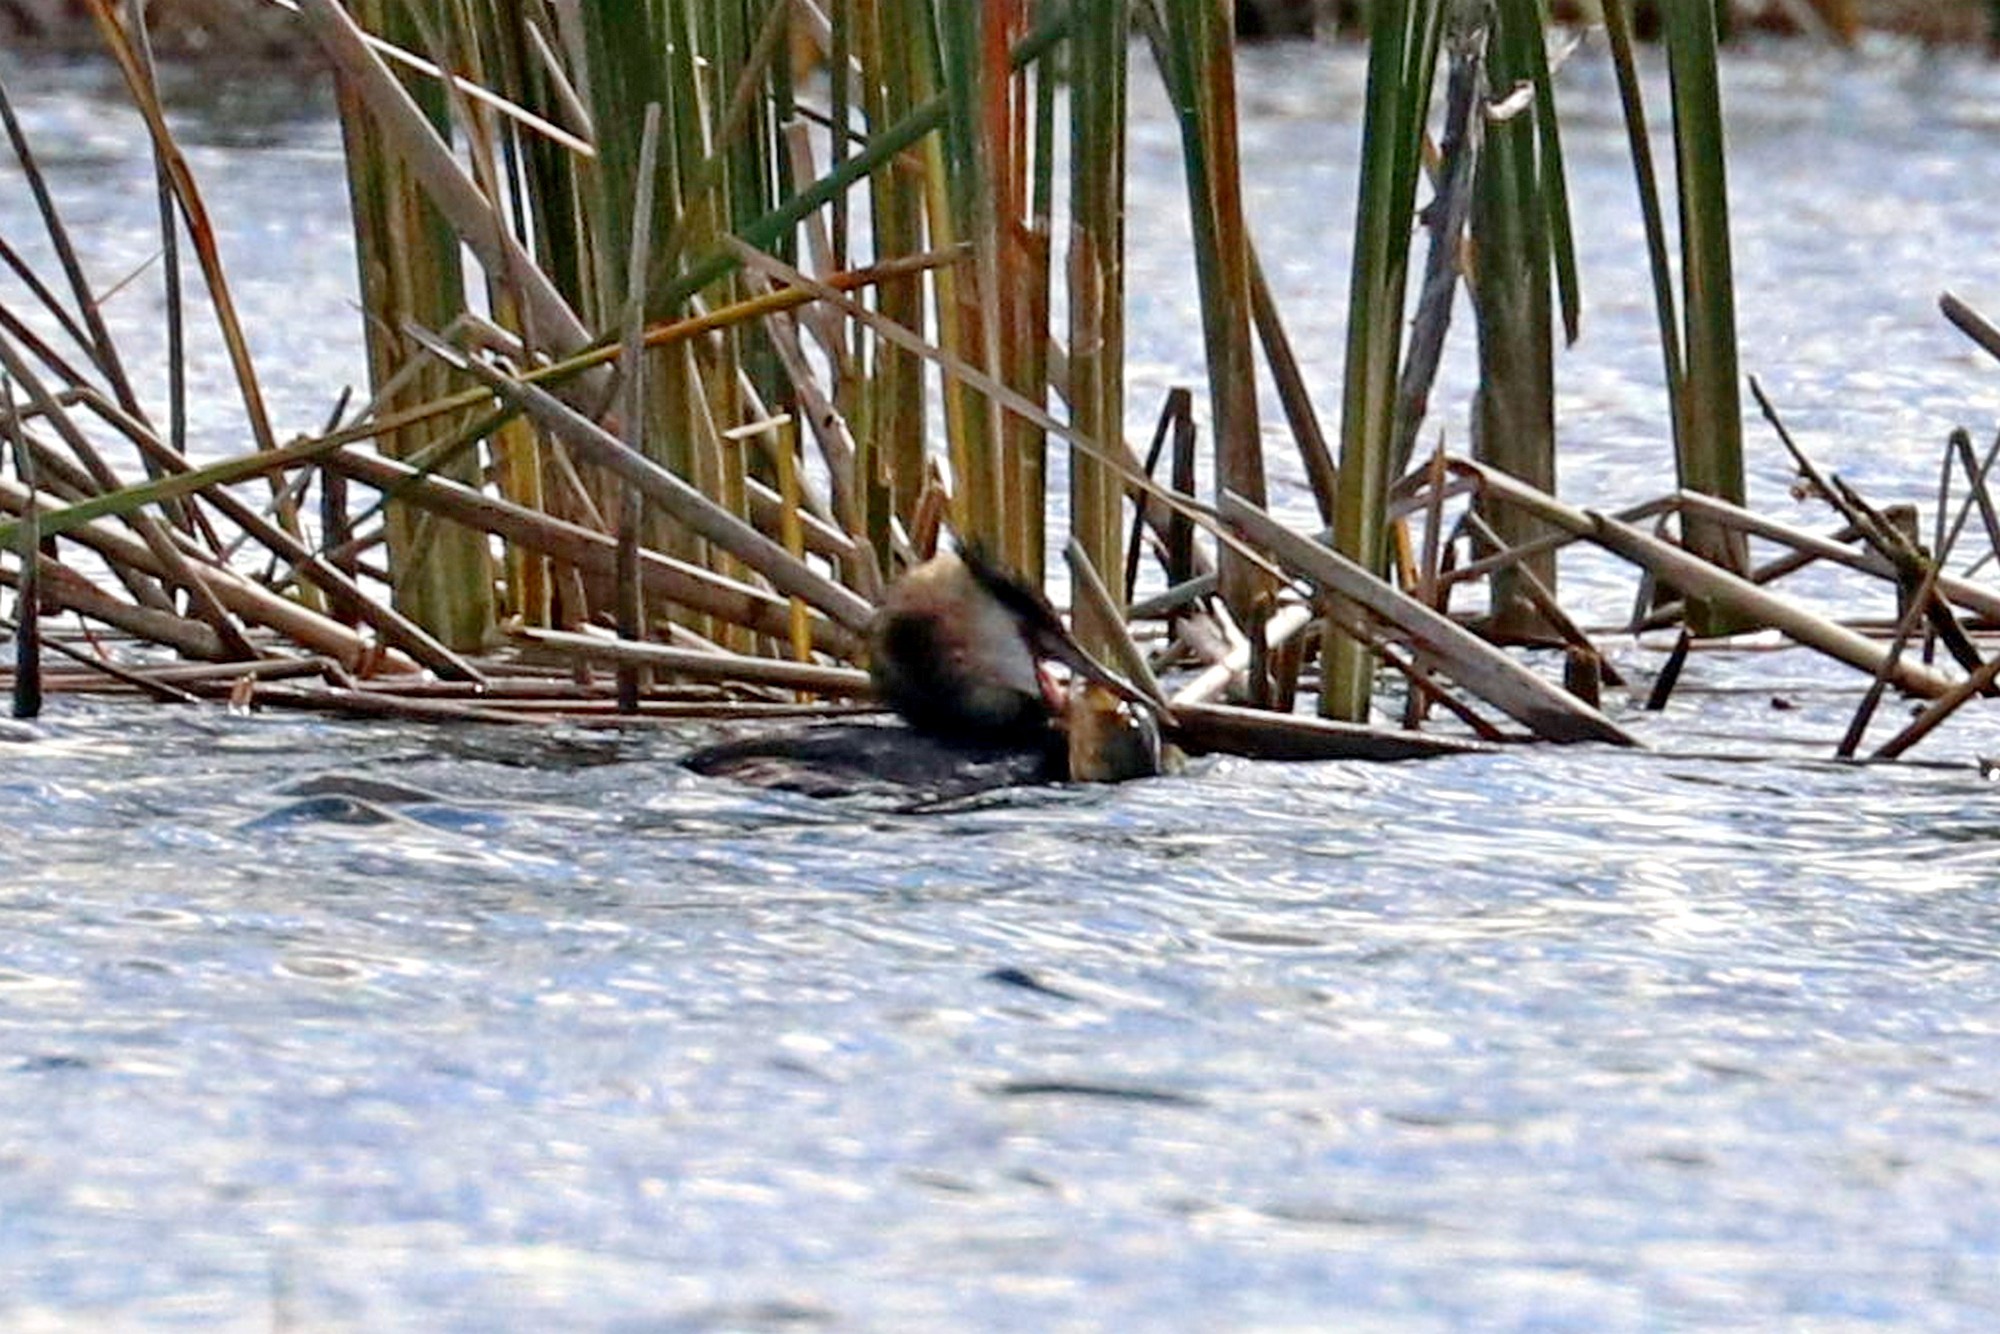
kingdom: Animalia
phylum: Chordata
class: Aves
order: Podicipediformes
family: Podicipedidae
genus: Podiceps
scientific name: Podiceps cristatus
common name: Great crested grebe
